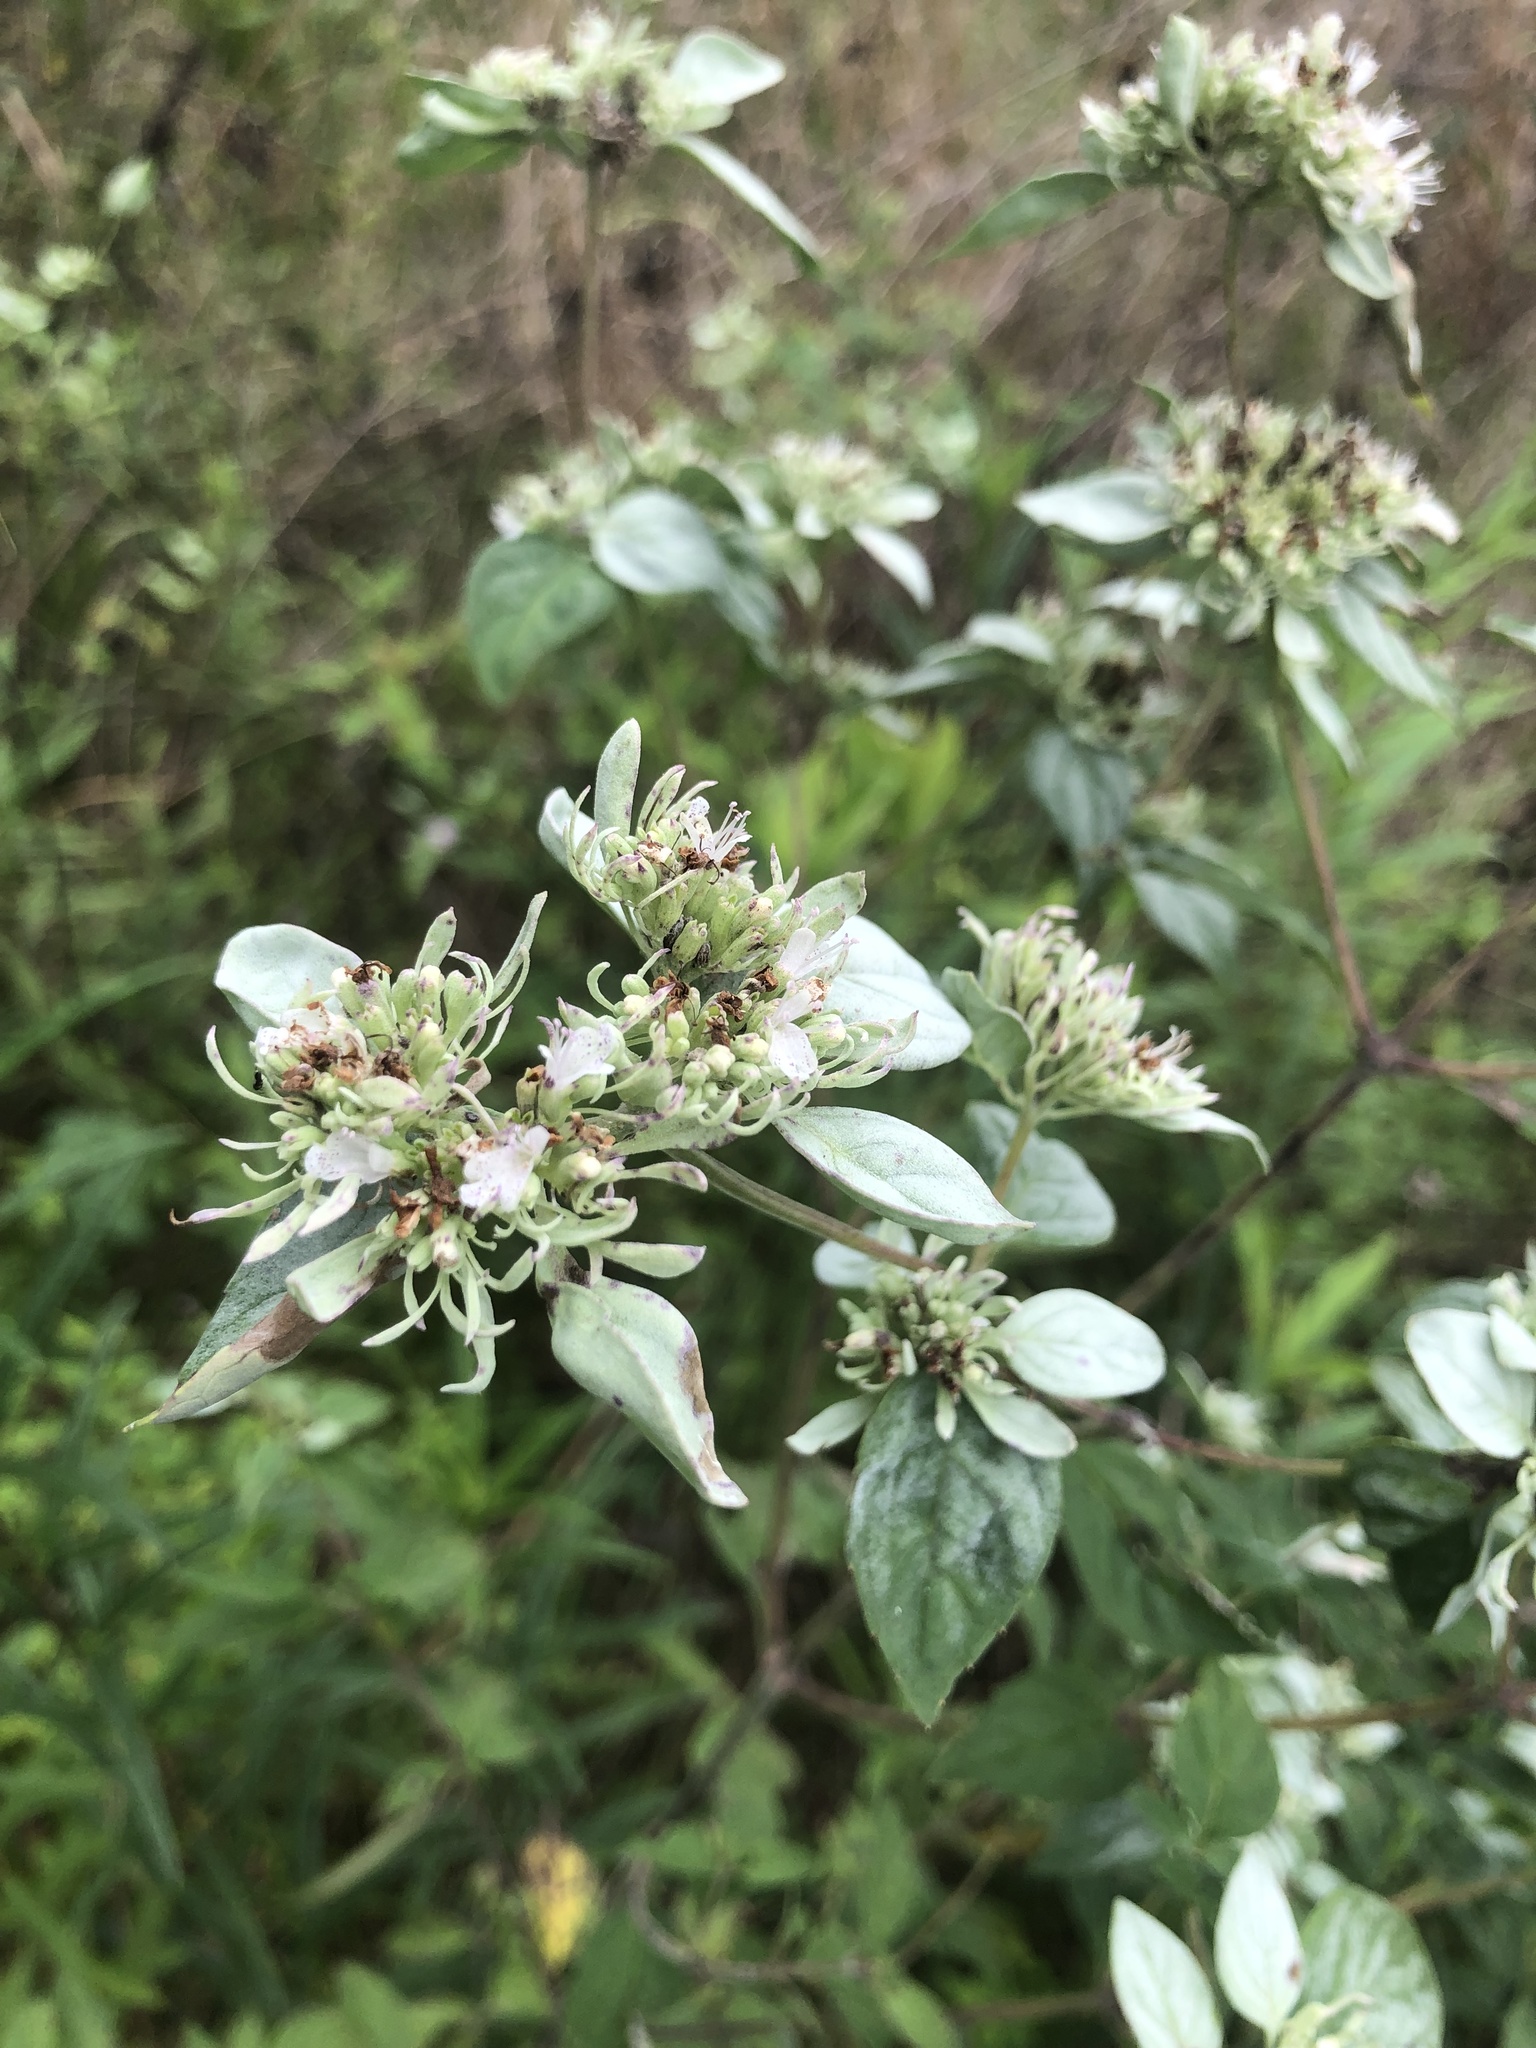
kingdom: Plantae
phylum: Tracheophyta
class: Magnoliopsida
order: Lamiales
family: Lamiaceae
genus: Pycnanthemum
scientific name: Pycnanthemum incanum
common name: Hoary mountain-mint
